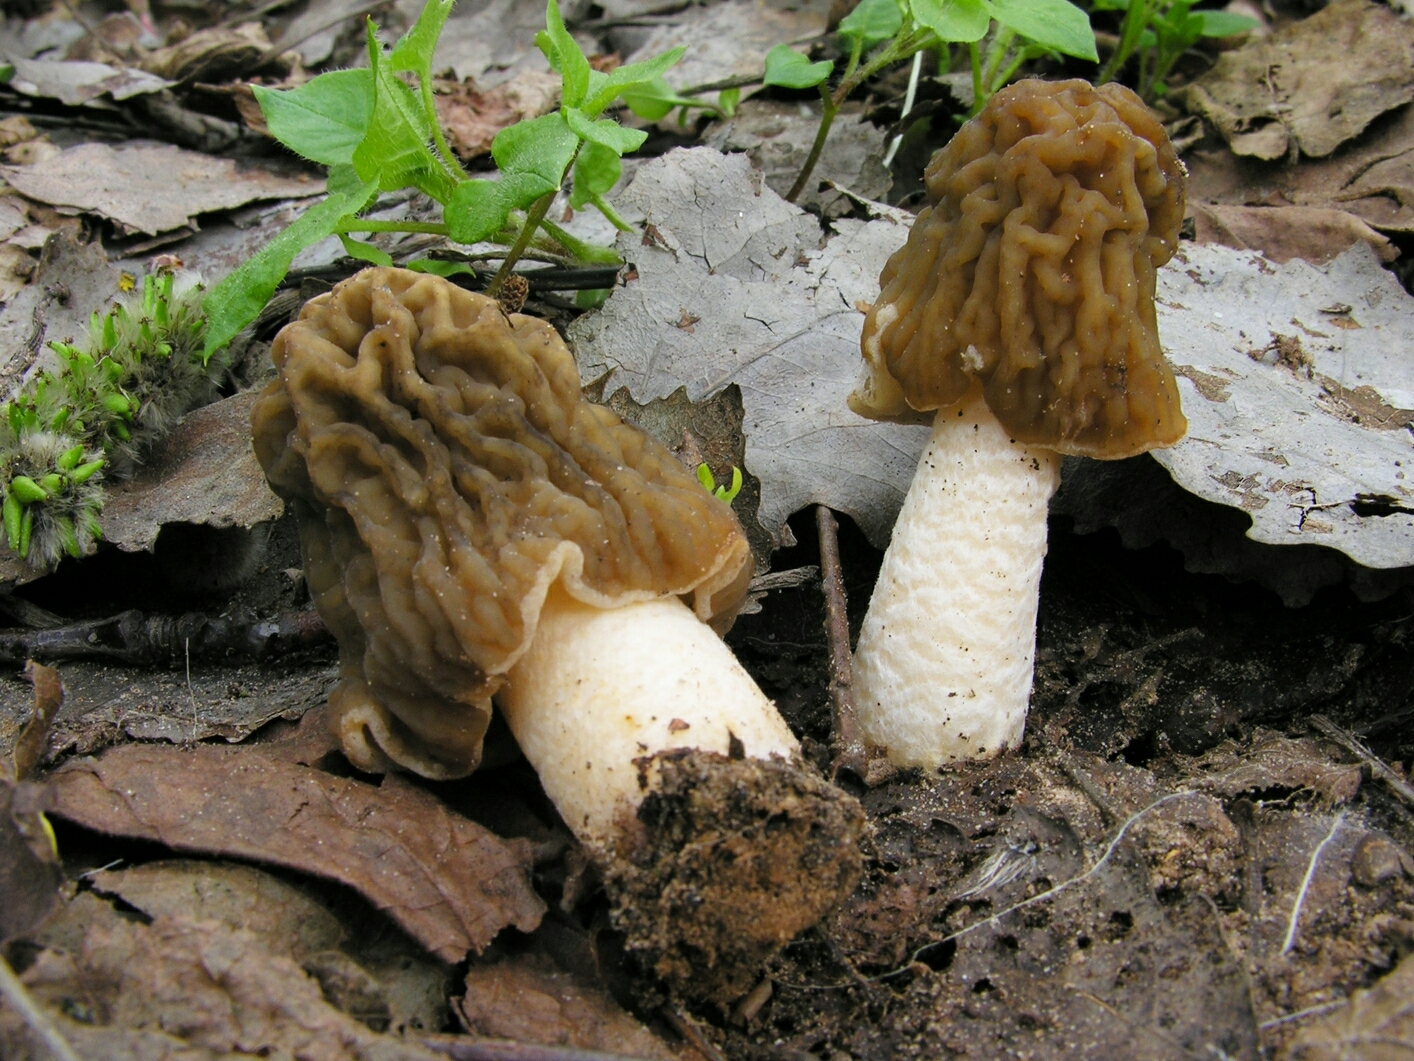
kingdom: Fungi
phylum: Ascomycota
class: Pezizomycetes
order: Pezizales
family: Morchellaceae
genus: Verpa
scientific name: Verpa bohemica
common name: Wrinkled thimble morel
